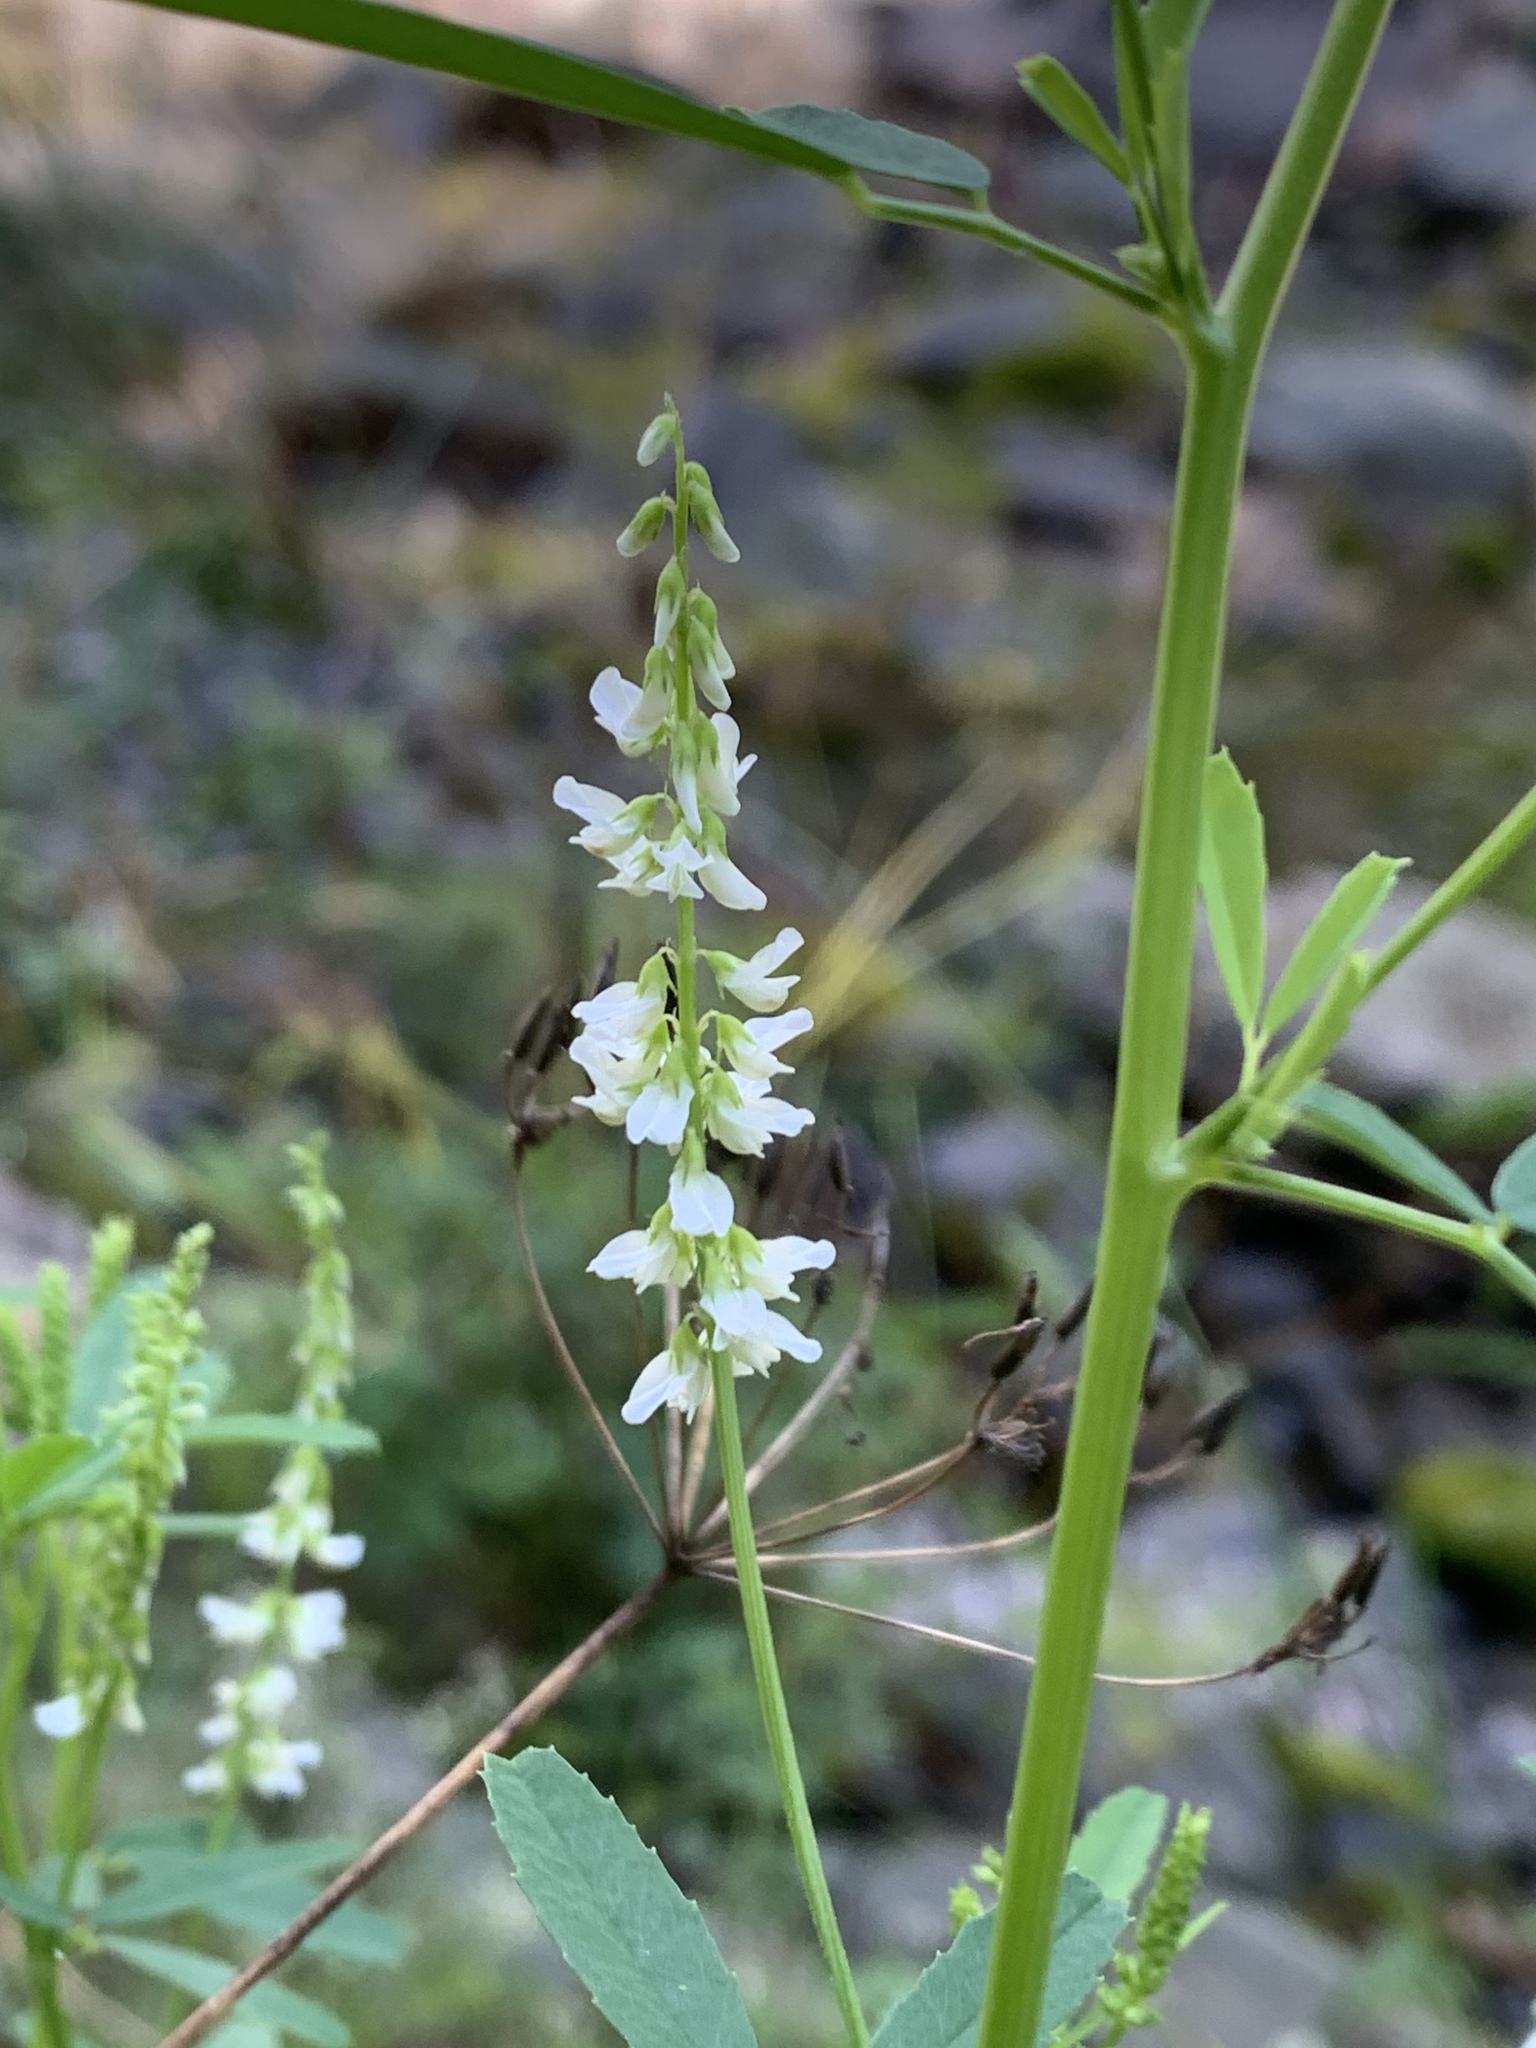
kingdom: Plantae
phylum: Tracheophyta
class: Magnoliopsida
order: Fabales
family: Fabaceae
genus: Melilotus
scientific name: Melilotus albus
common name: White melilot
